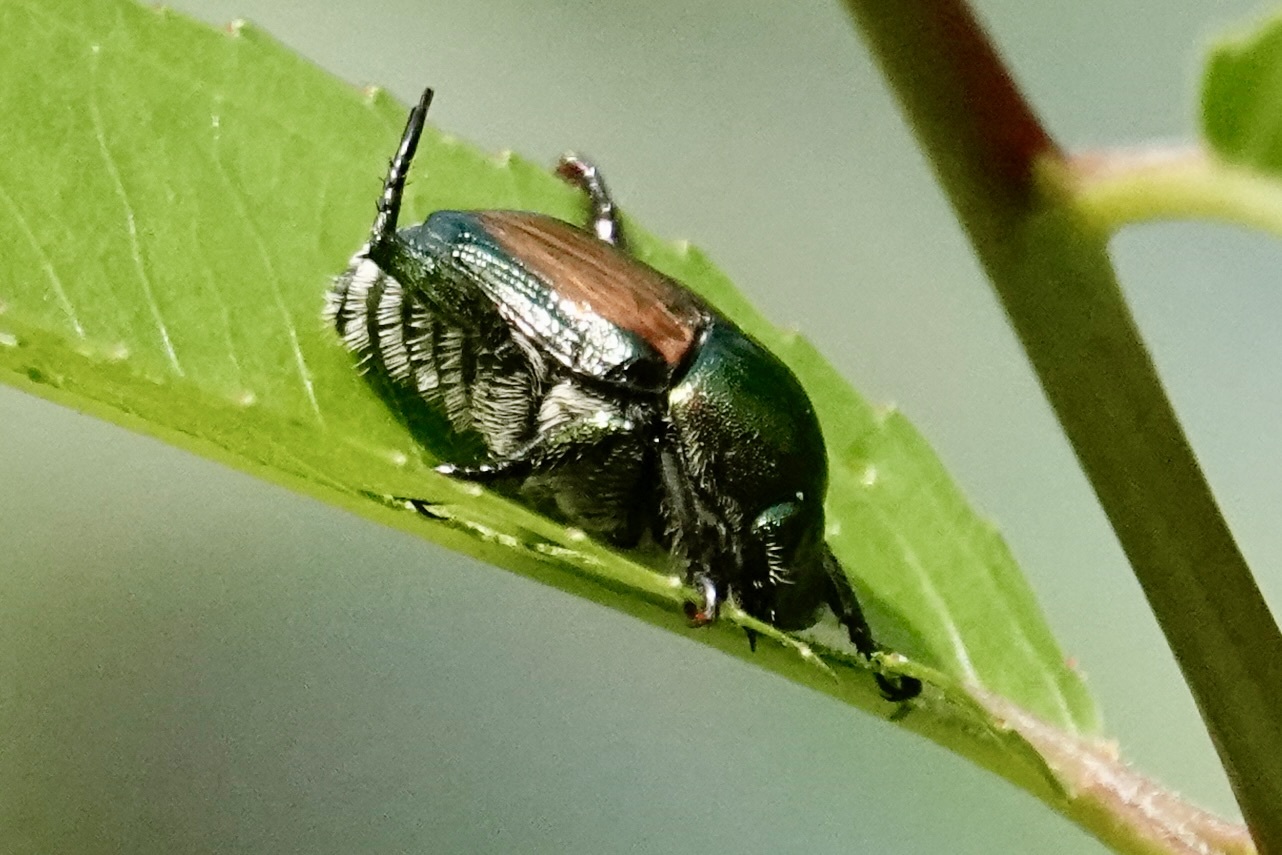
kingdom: Animalia
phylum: Arthropoda
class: Insecta
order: Coleoptera
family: Scarabaeidae
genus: Popillia
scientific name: Popillia japonica
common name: Japanese beetle
